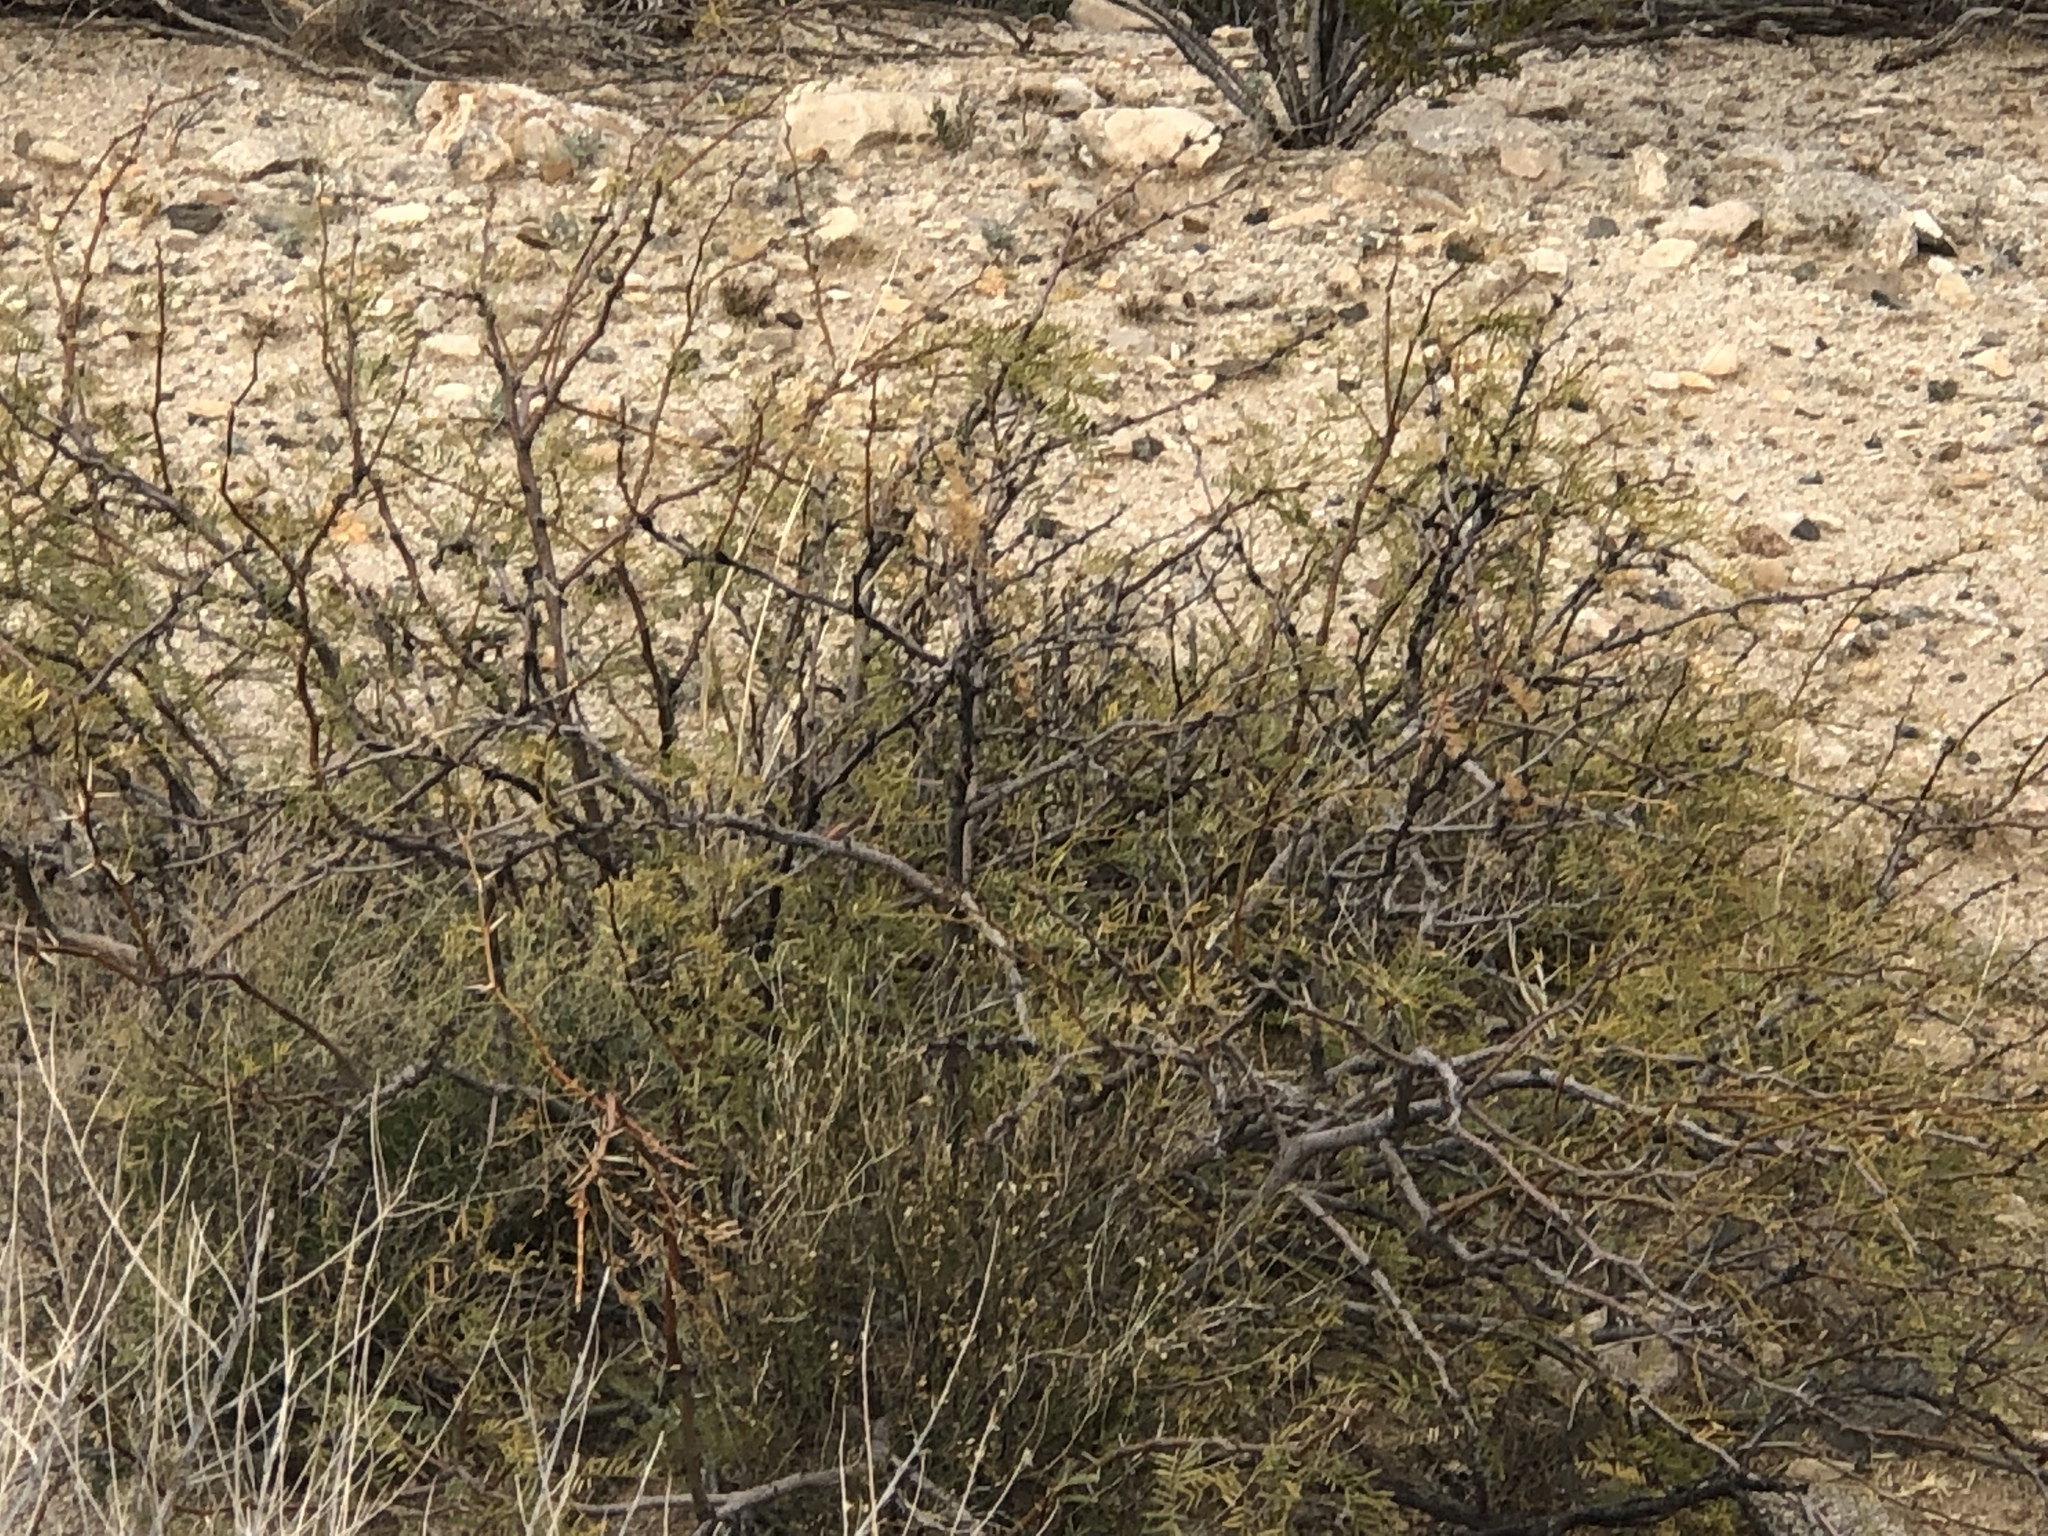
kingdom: Plantae
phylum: Tracheophyta
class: Magnoliopsida
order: Fabales
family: Fabaceae
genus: Prosopis
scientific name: Prosopis glandulosa
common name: Honey mesquite
